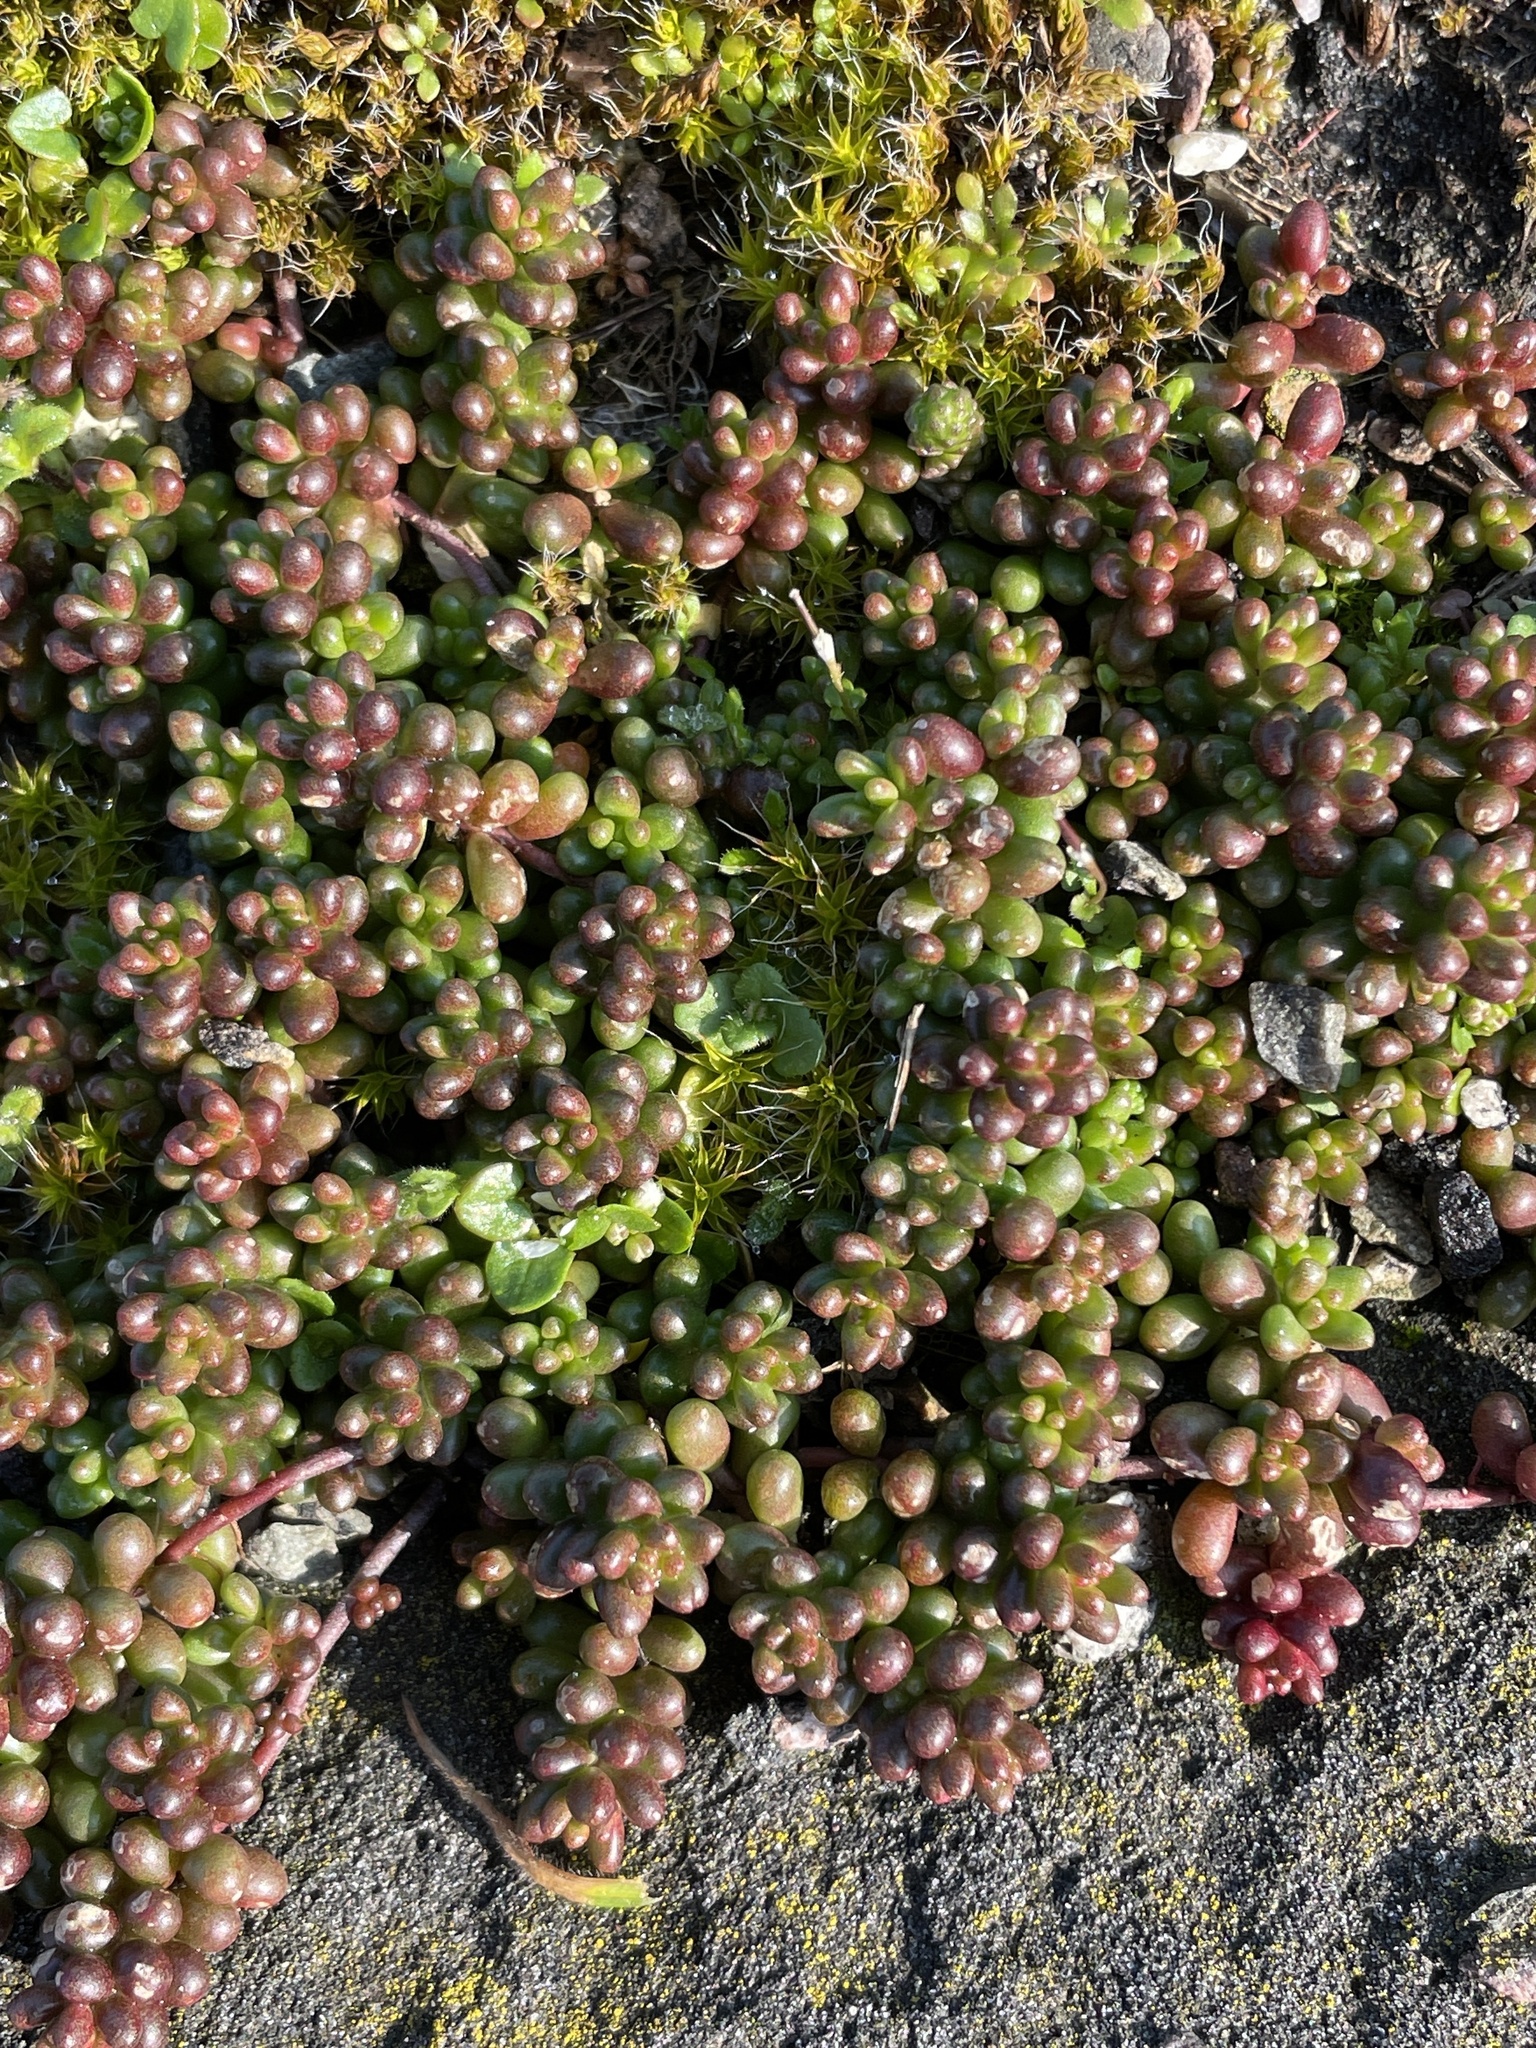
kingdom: Plantae
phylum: Tracheophyta
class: Magnoliopsida
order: Saxifragales
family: Crassulaceae
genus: Sedum
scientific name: Sedum album
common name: White stonecrop
